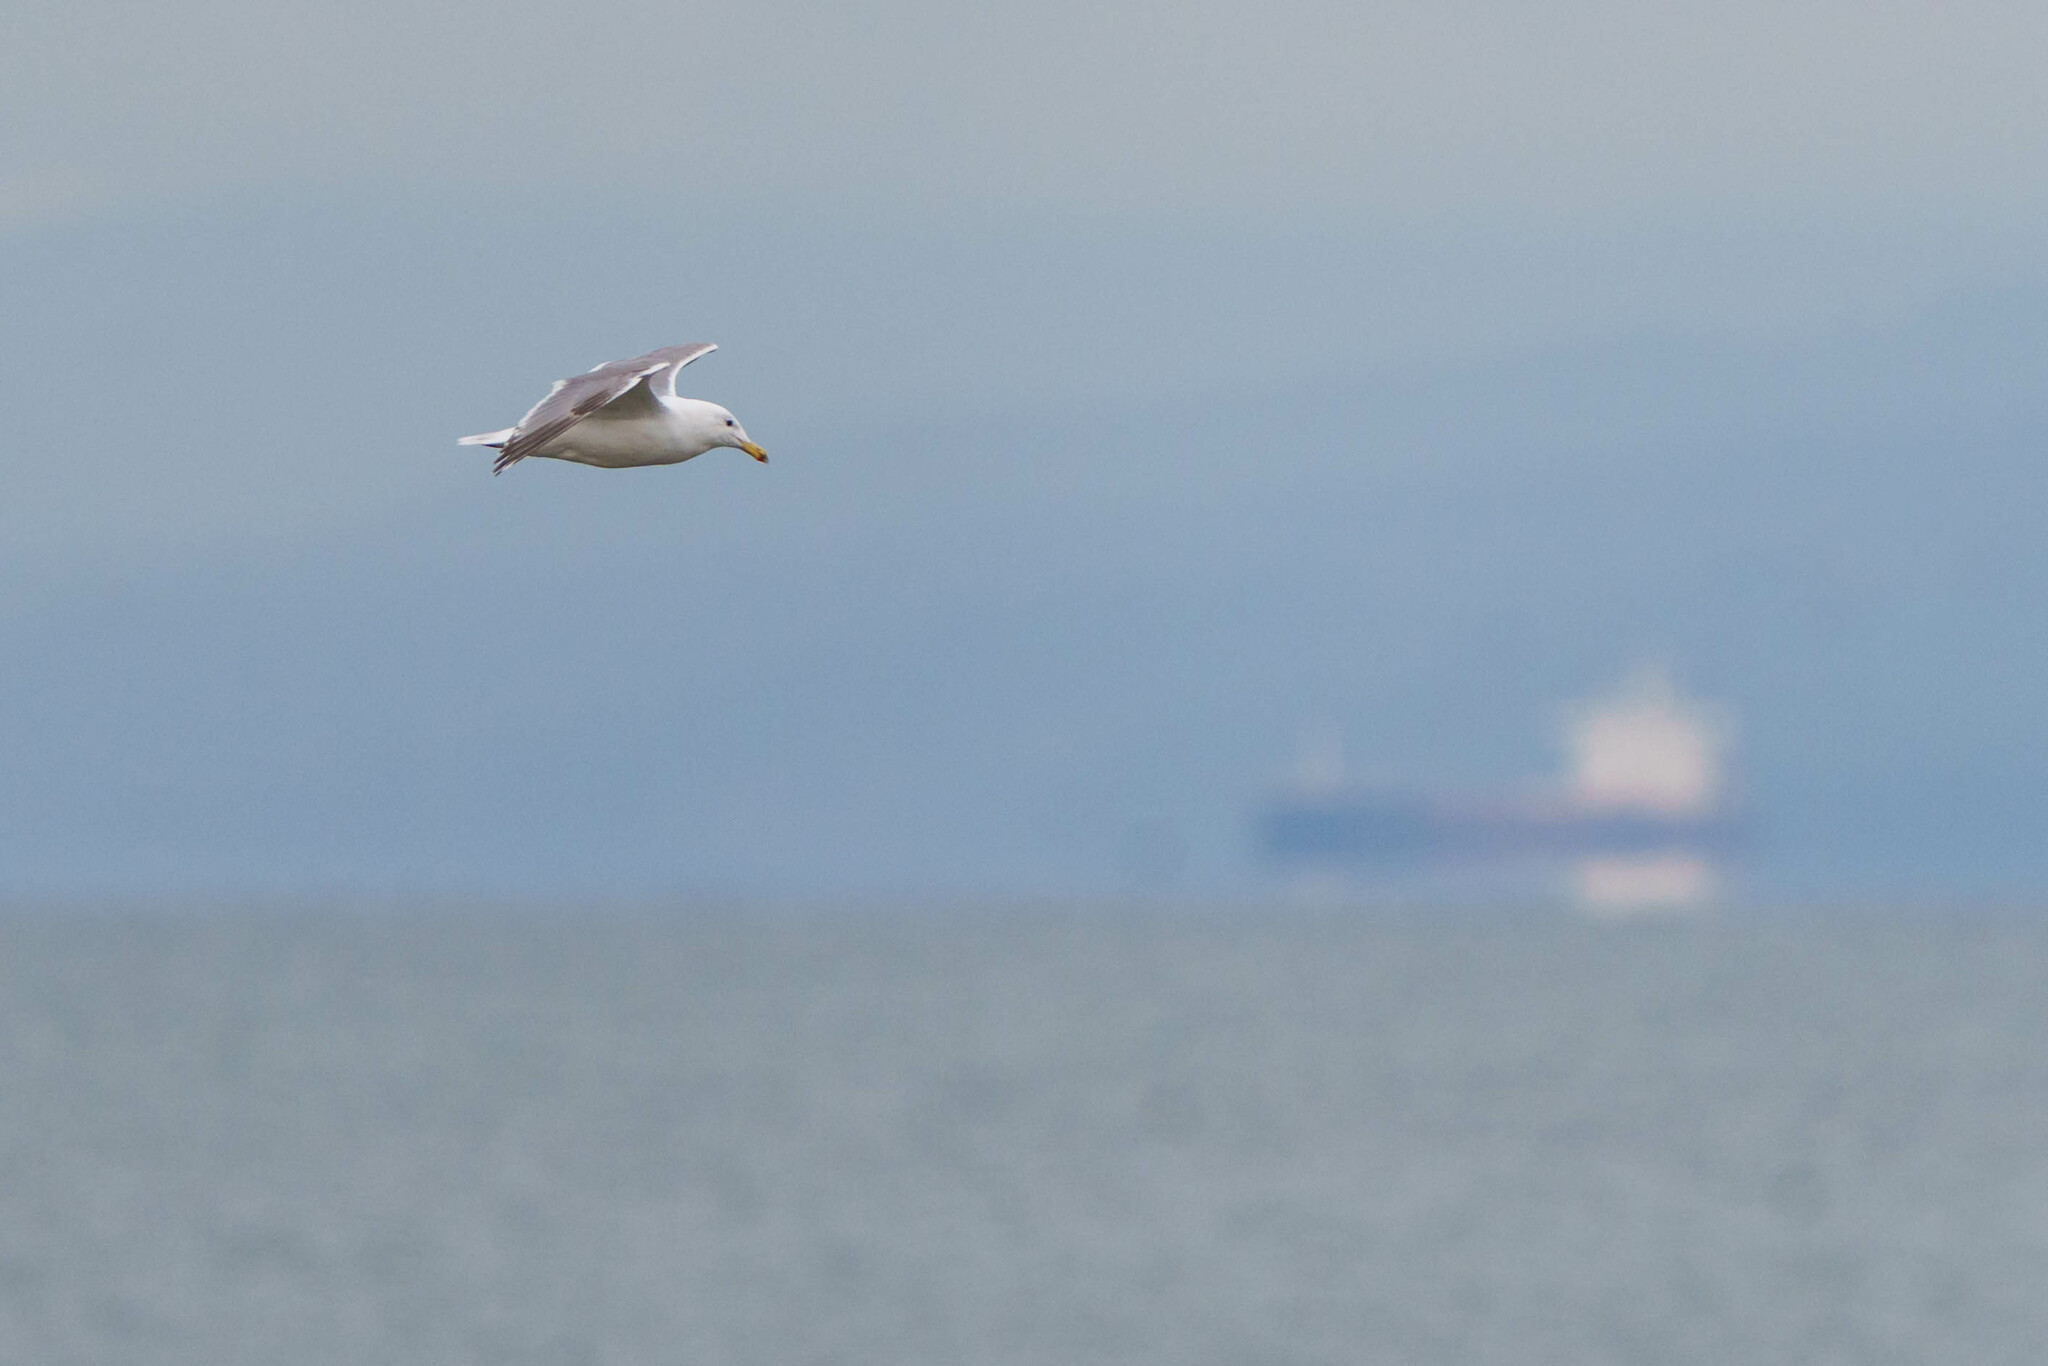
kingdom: Animalia
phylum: Chordata
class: Aves
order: Charadriiformes
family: Laridae
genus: Larus
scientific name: Larus
